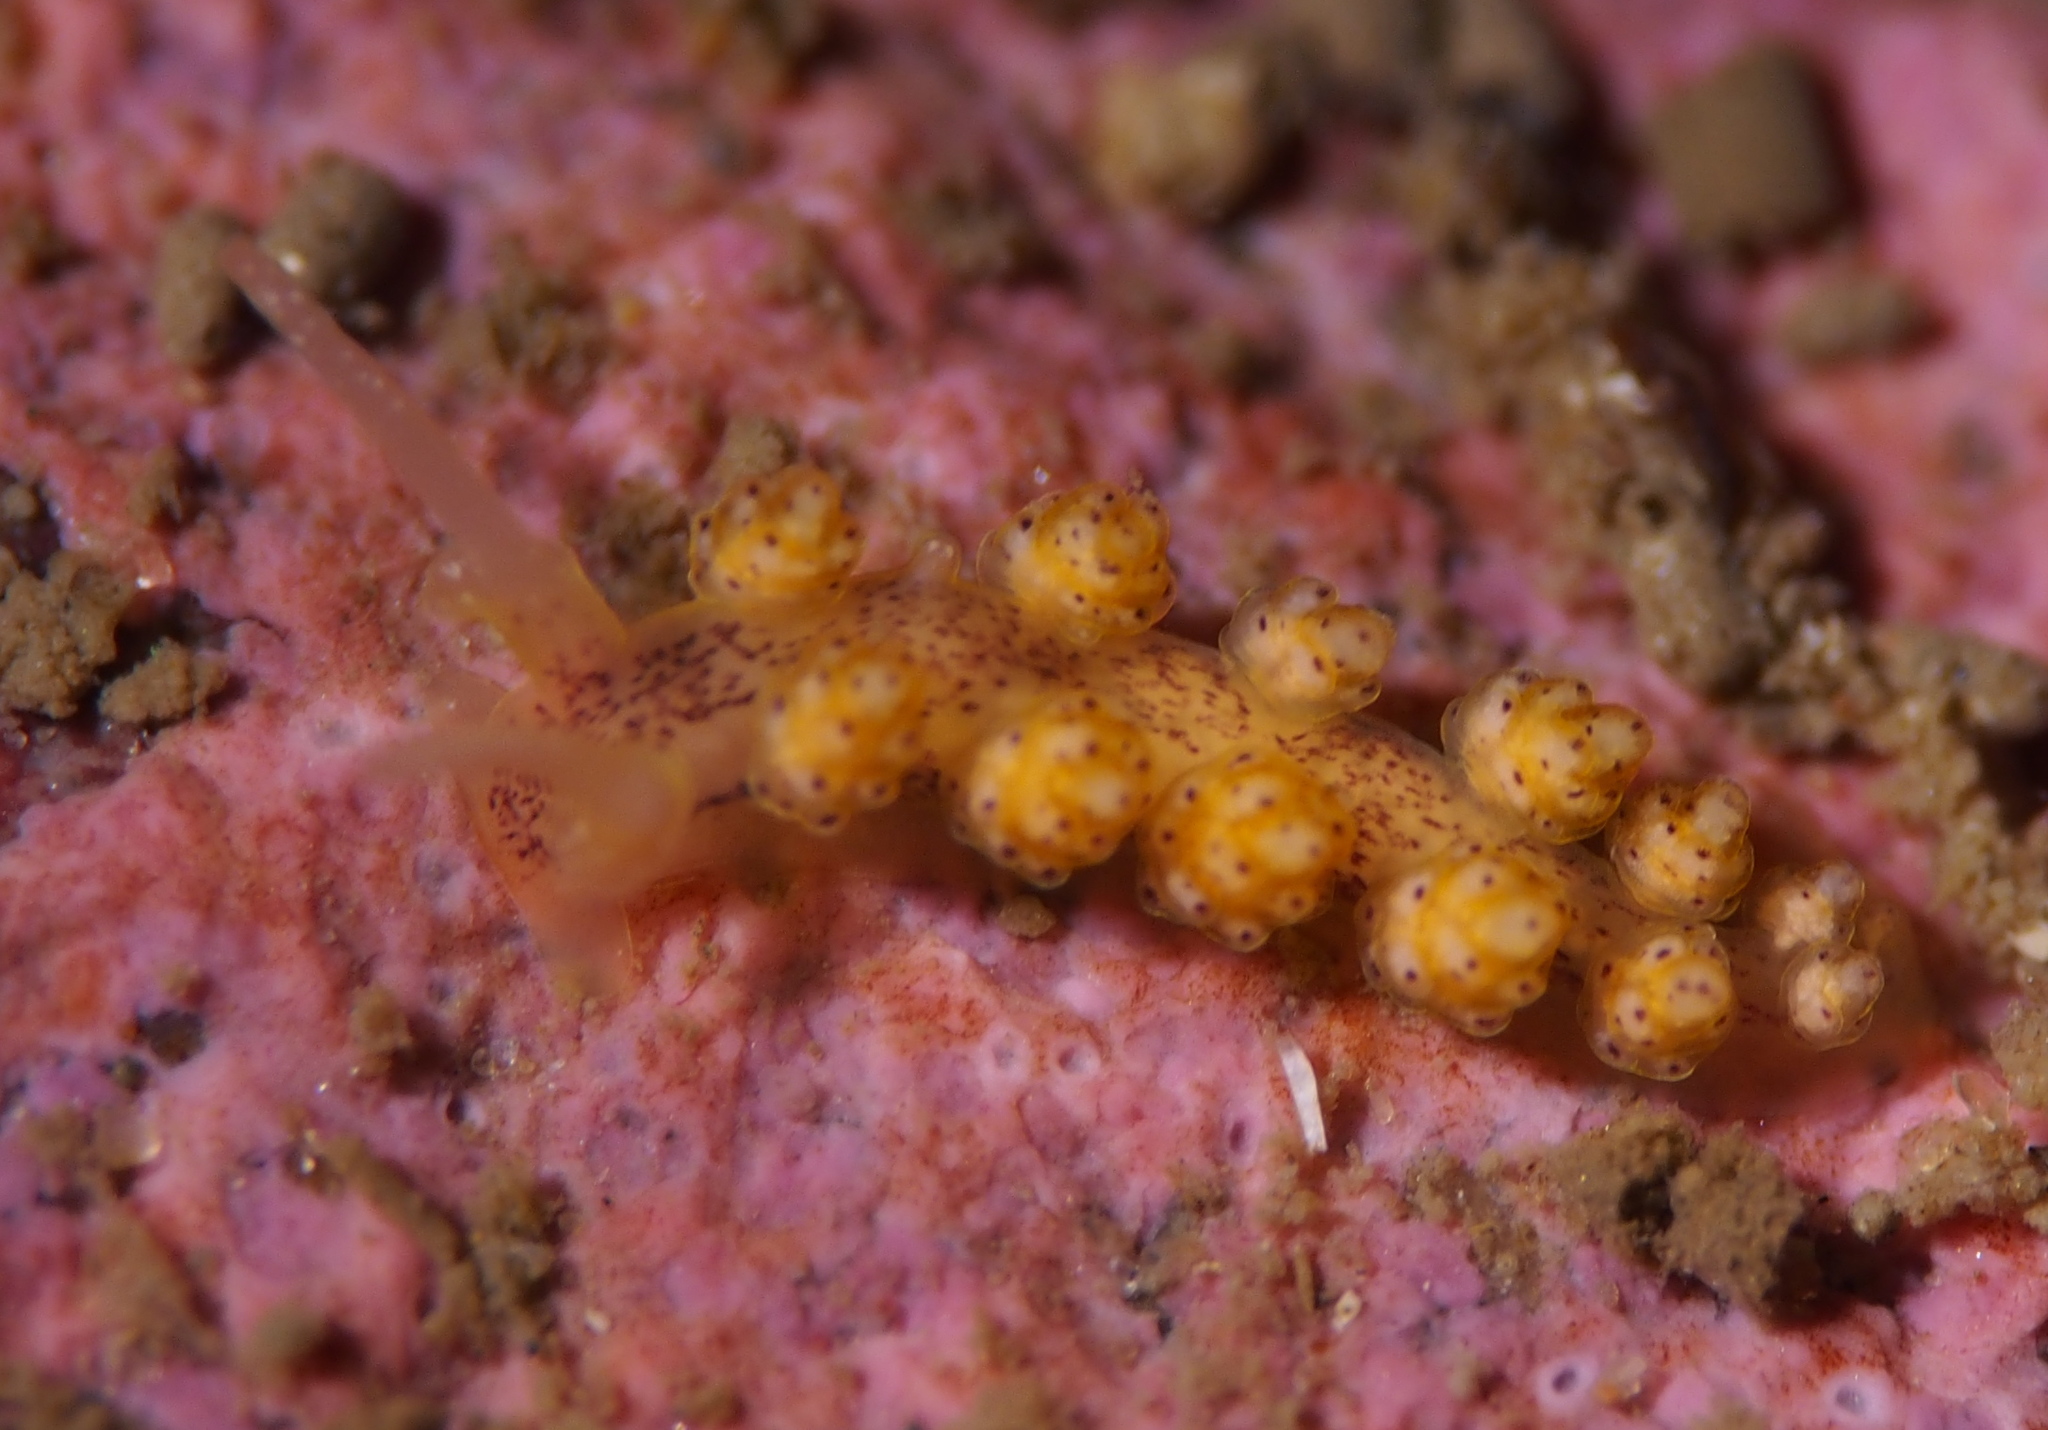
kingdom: Animalia
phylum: Mollusca
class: Gastropoda
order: Nudibranchia
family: Dotidae
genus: Doto
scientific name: Doto dunnei
